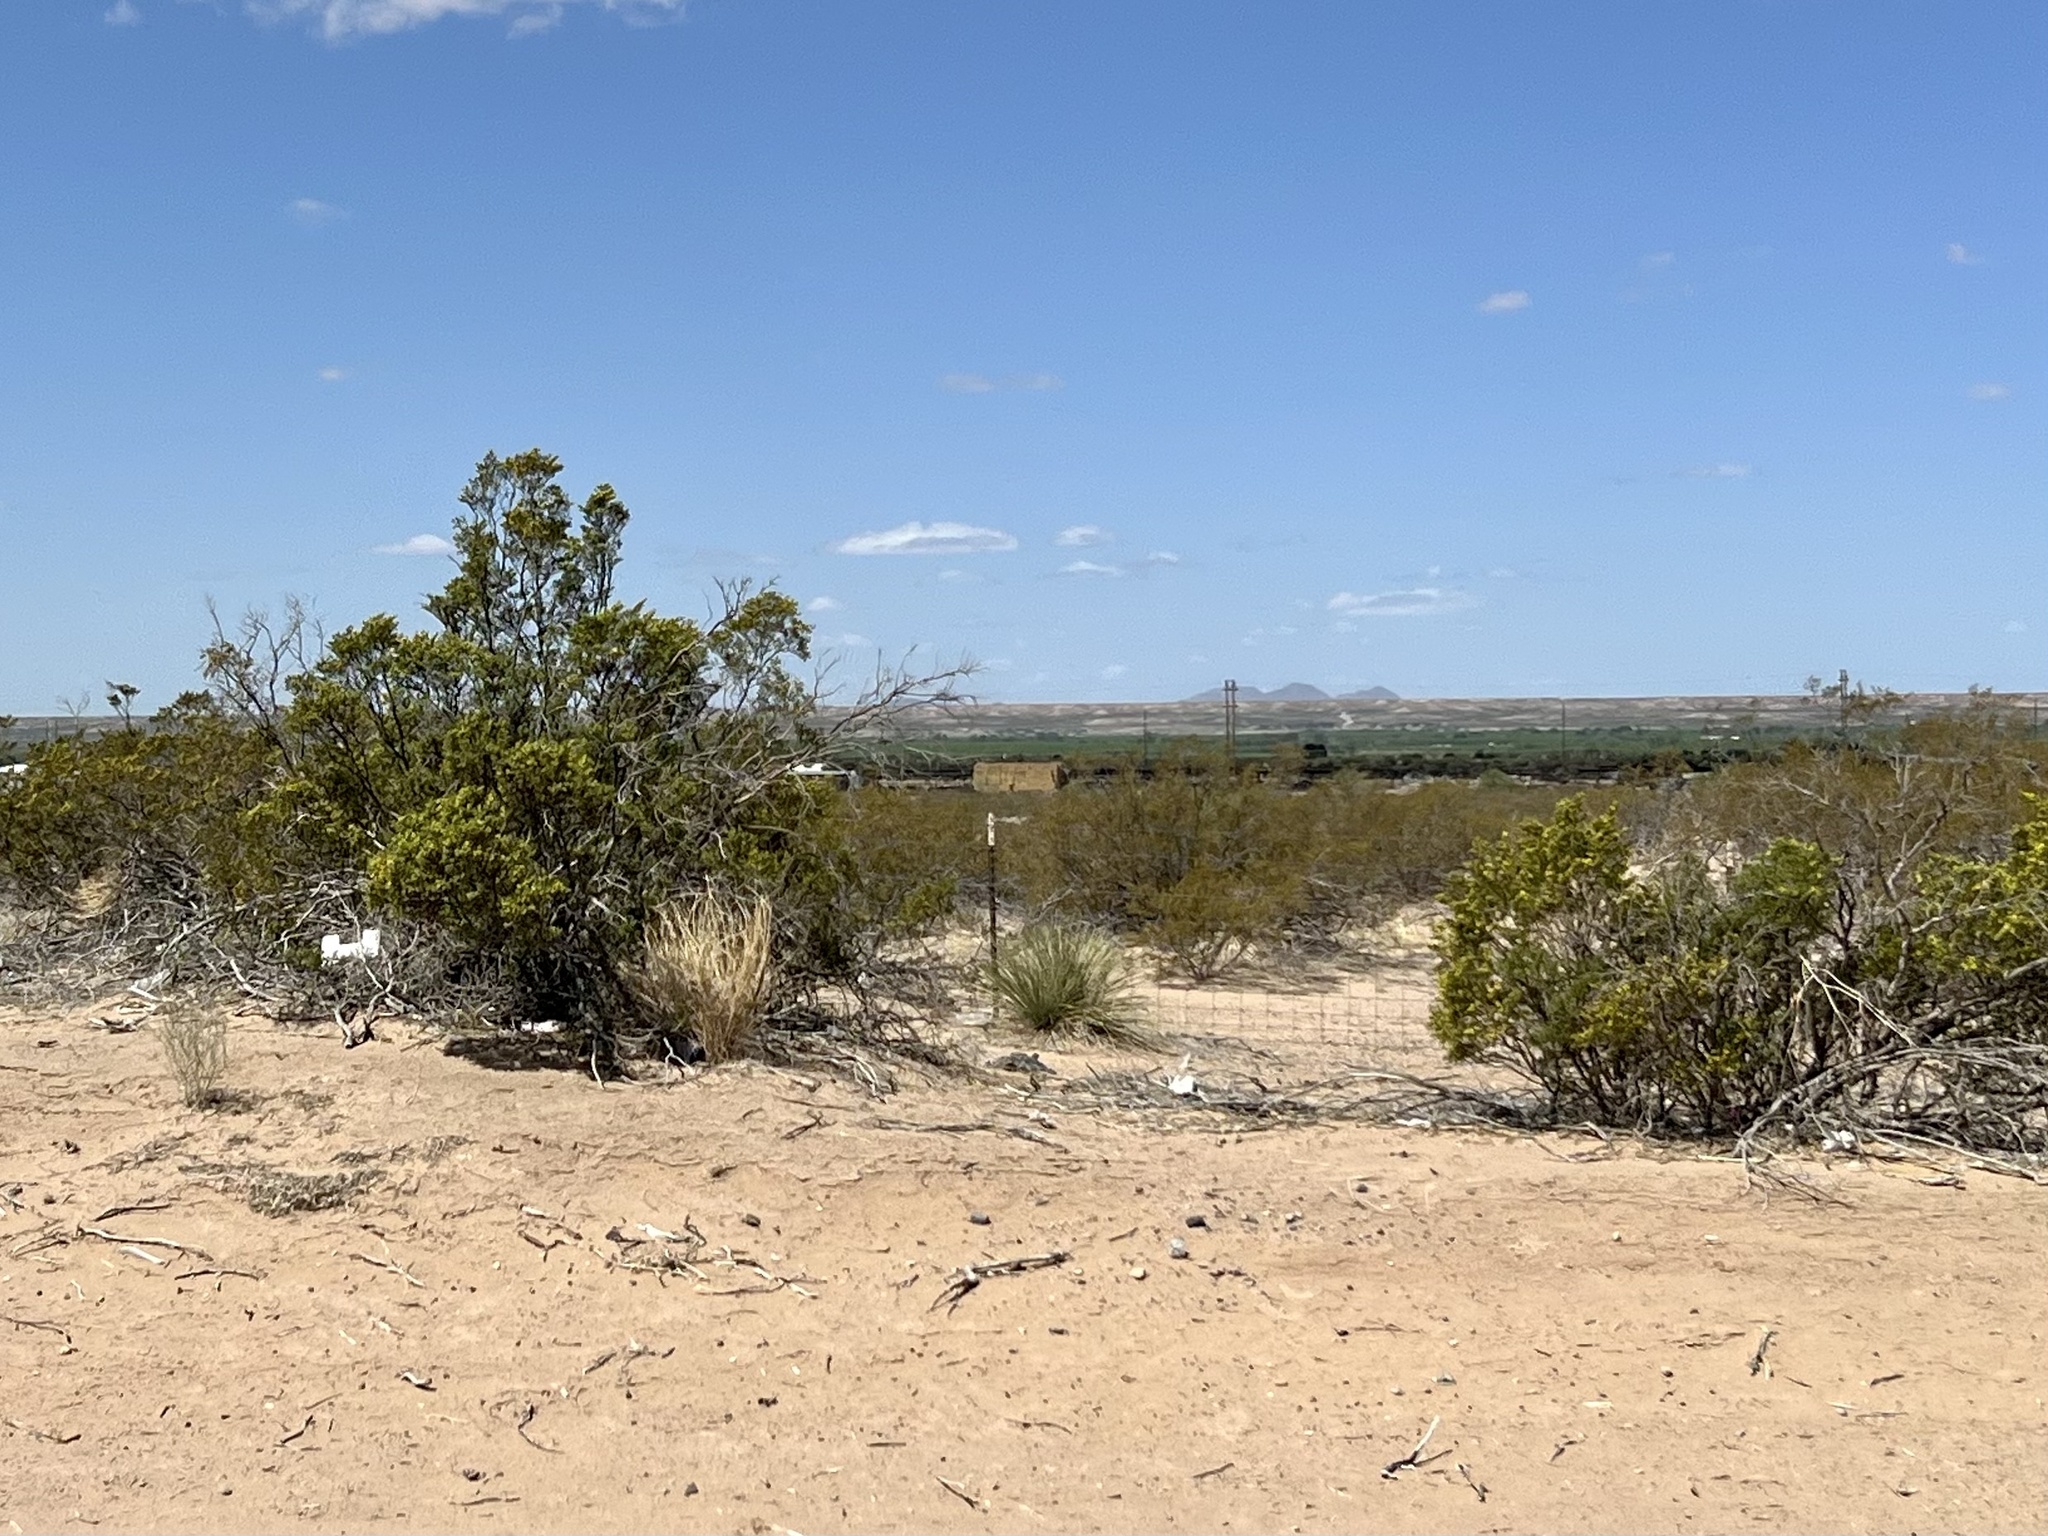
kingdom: Plantae
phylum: Tracheophyta
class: Magnoliopsida
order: Zygophyllales
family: Zygophyllaceae
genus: Larrea
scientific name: Larrea tridentata
